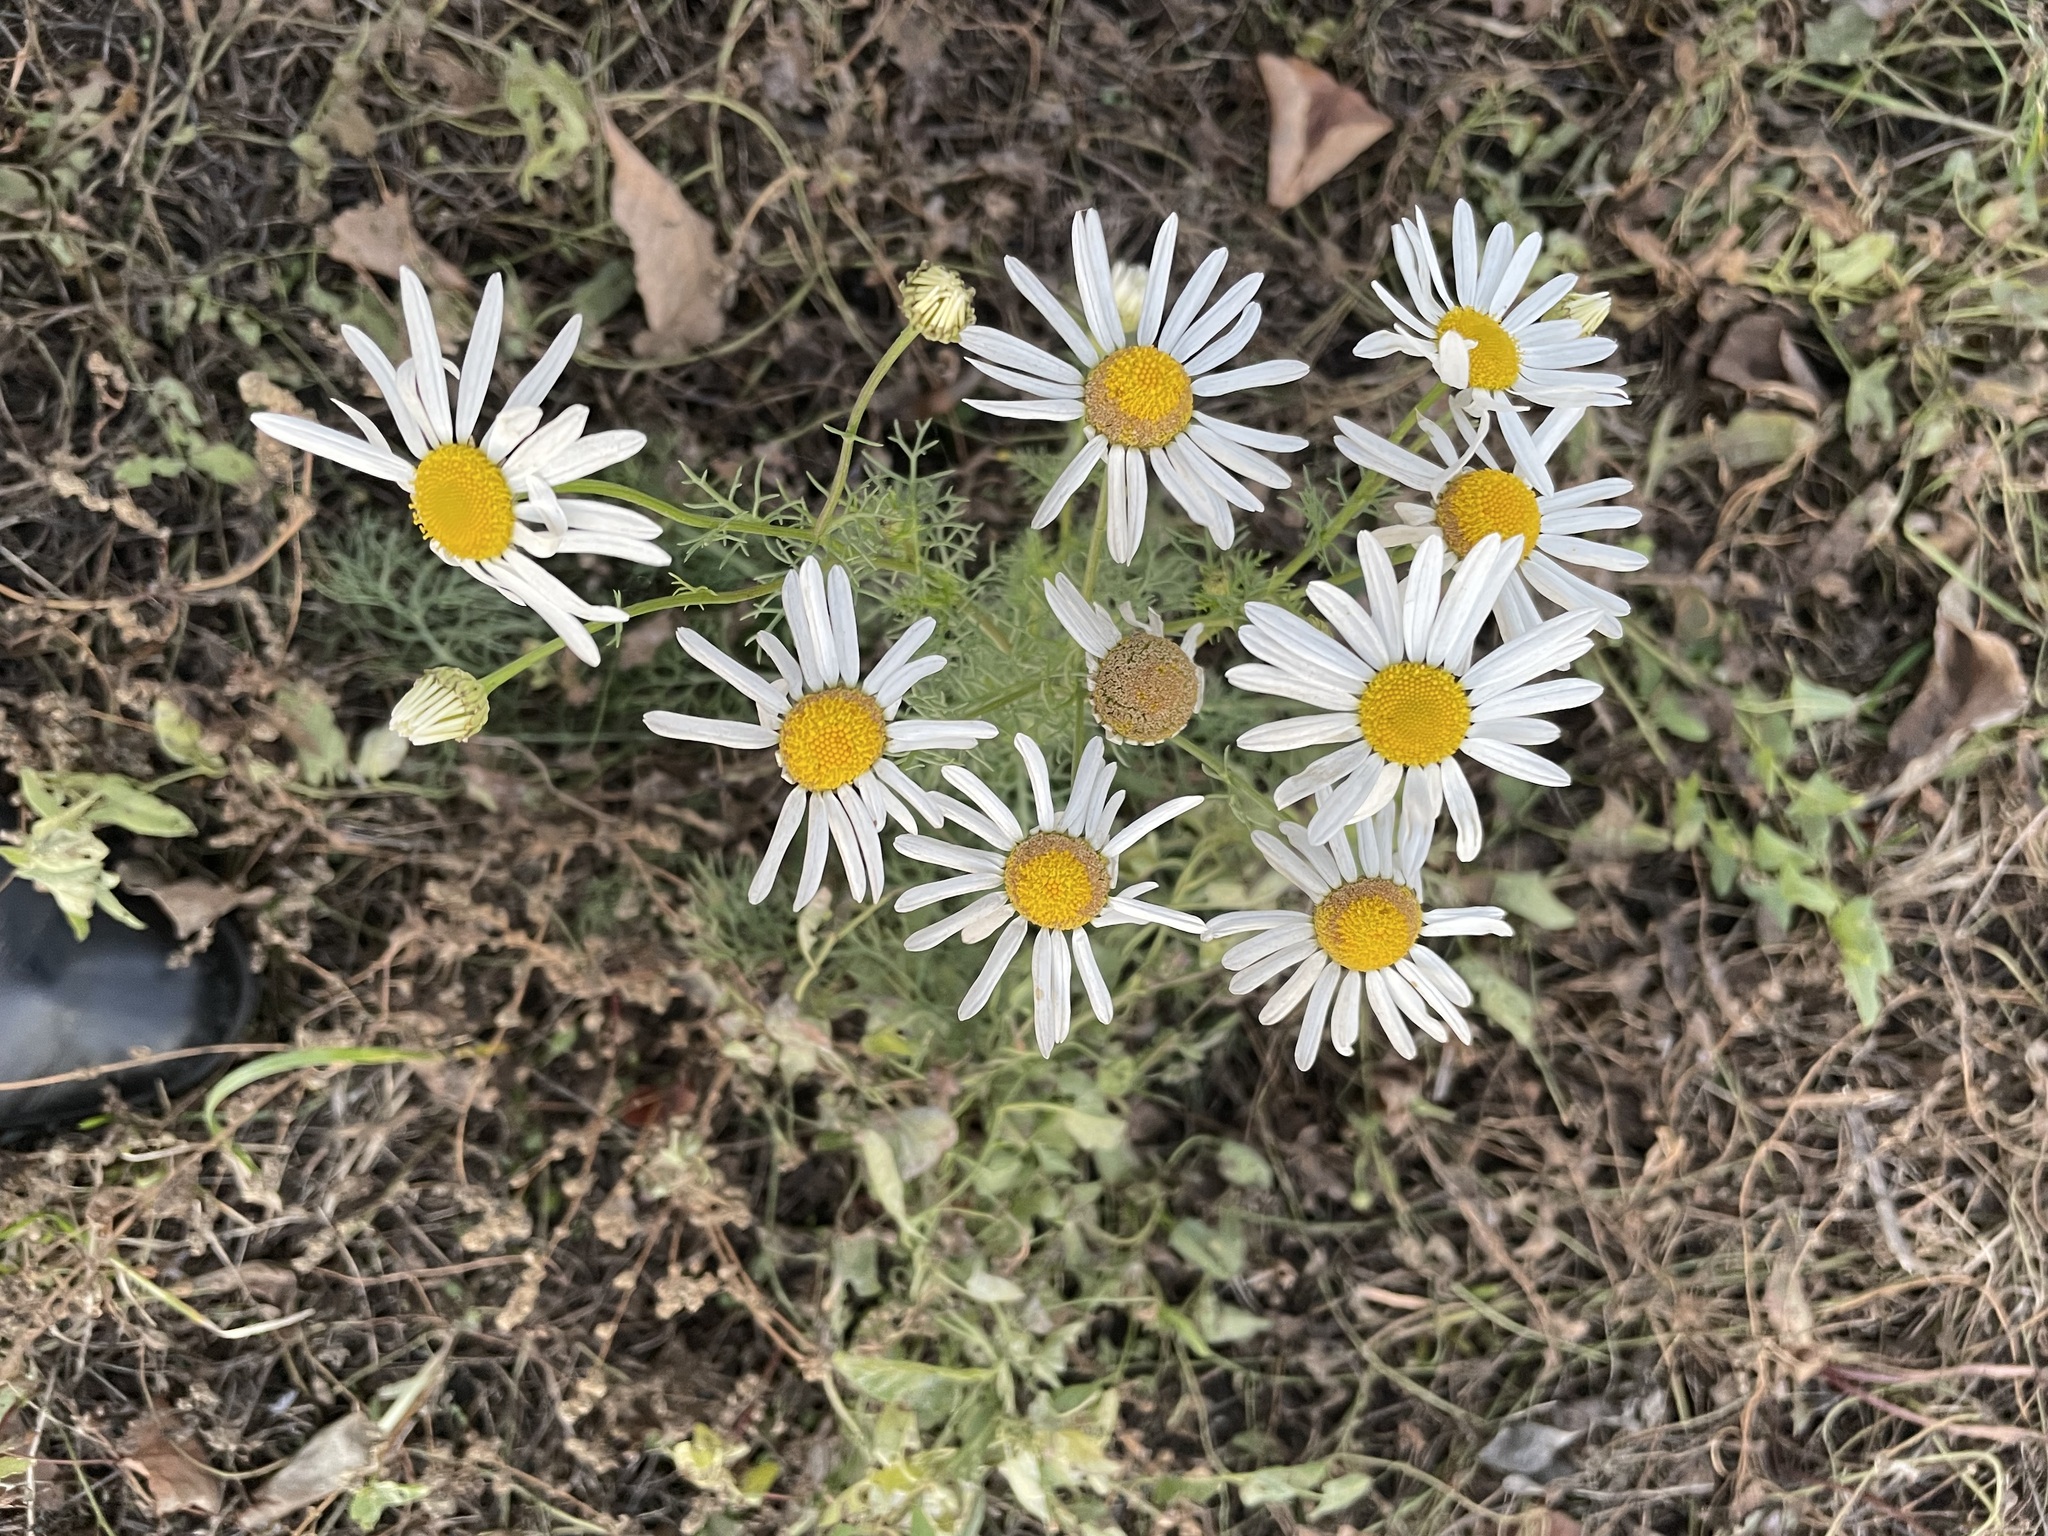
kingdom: Plantae
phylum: Tracheophyta
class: Magnoliopsida
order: Asterales
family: Asteraceae
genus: Tripleurospermum
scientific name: Tripleurospermum inodorum
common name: Scentless mayweed
